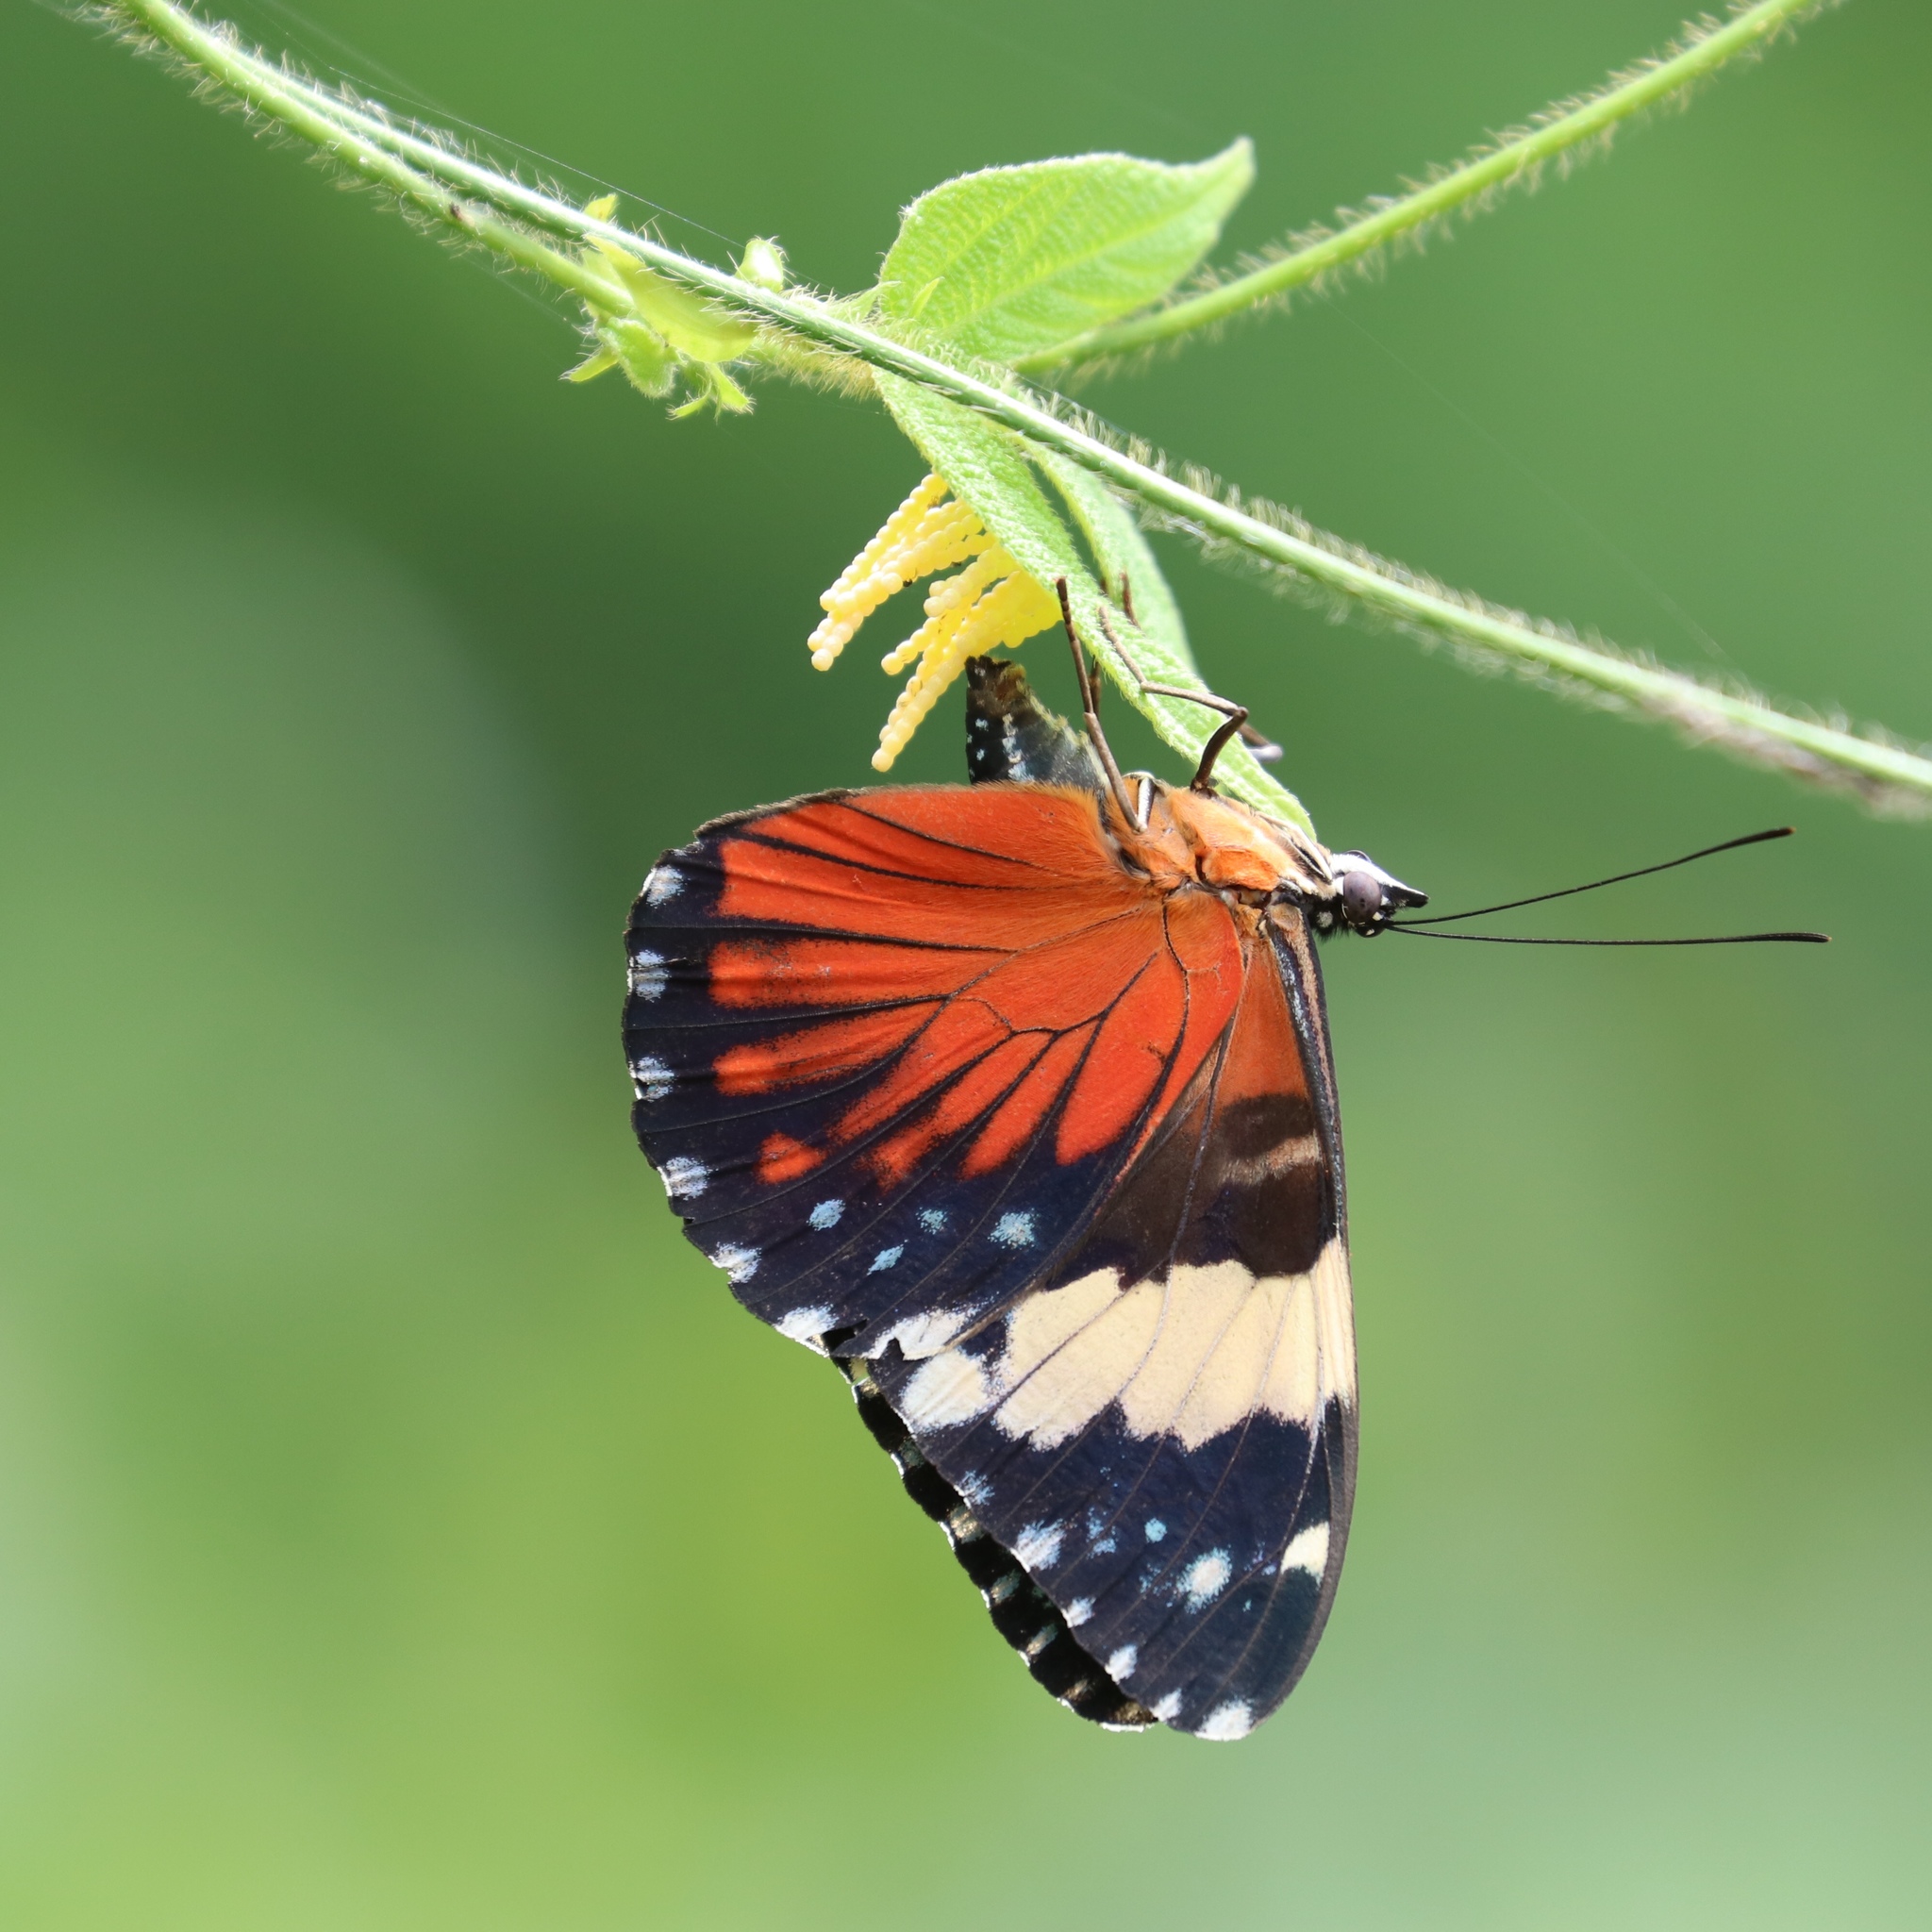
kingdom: Animalia
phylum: Arthropoda
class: Insecta
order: Lepidoptera
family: Nymphalidae
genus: Hamadryas
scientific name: Hamadryas amphinome
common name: Red cracker
